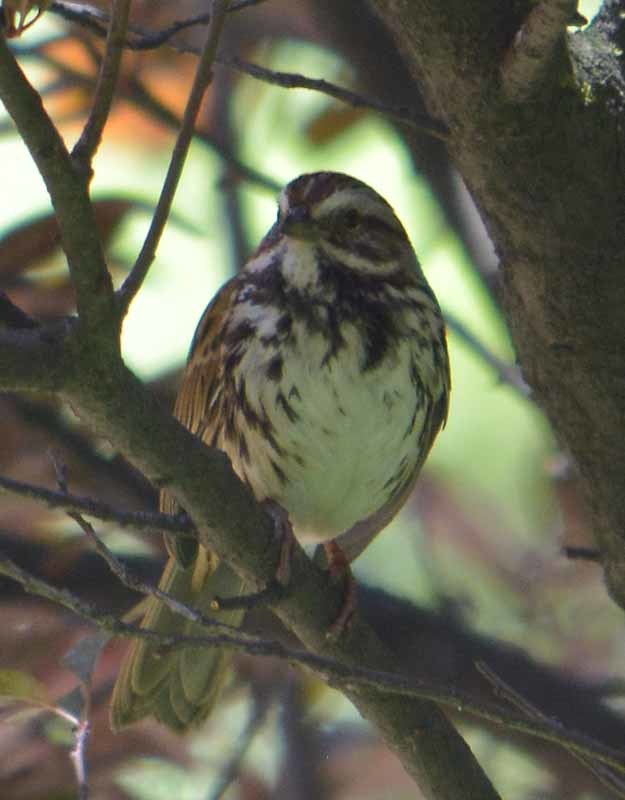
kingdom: Animalia
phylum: Chordata
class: Aves
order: Passeriformes
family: Passerellidae
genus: Melospiza
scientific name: Melospiza melodia
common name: Song sparrow
